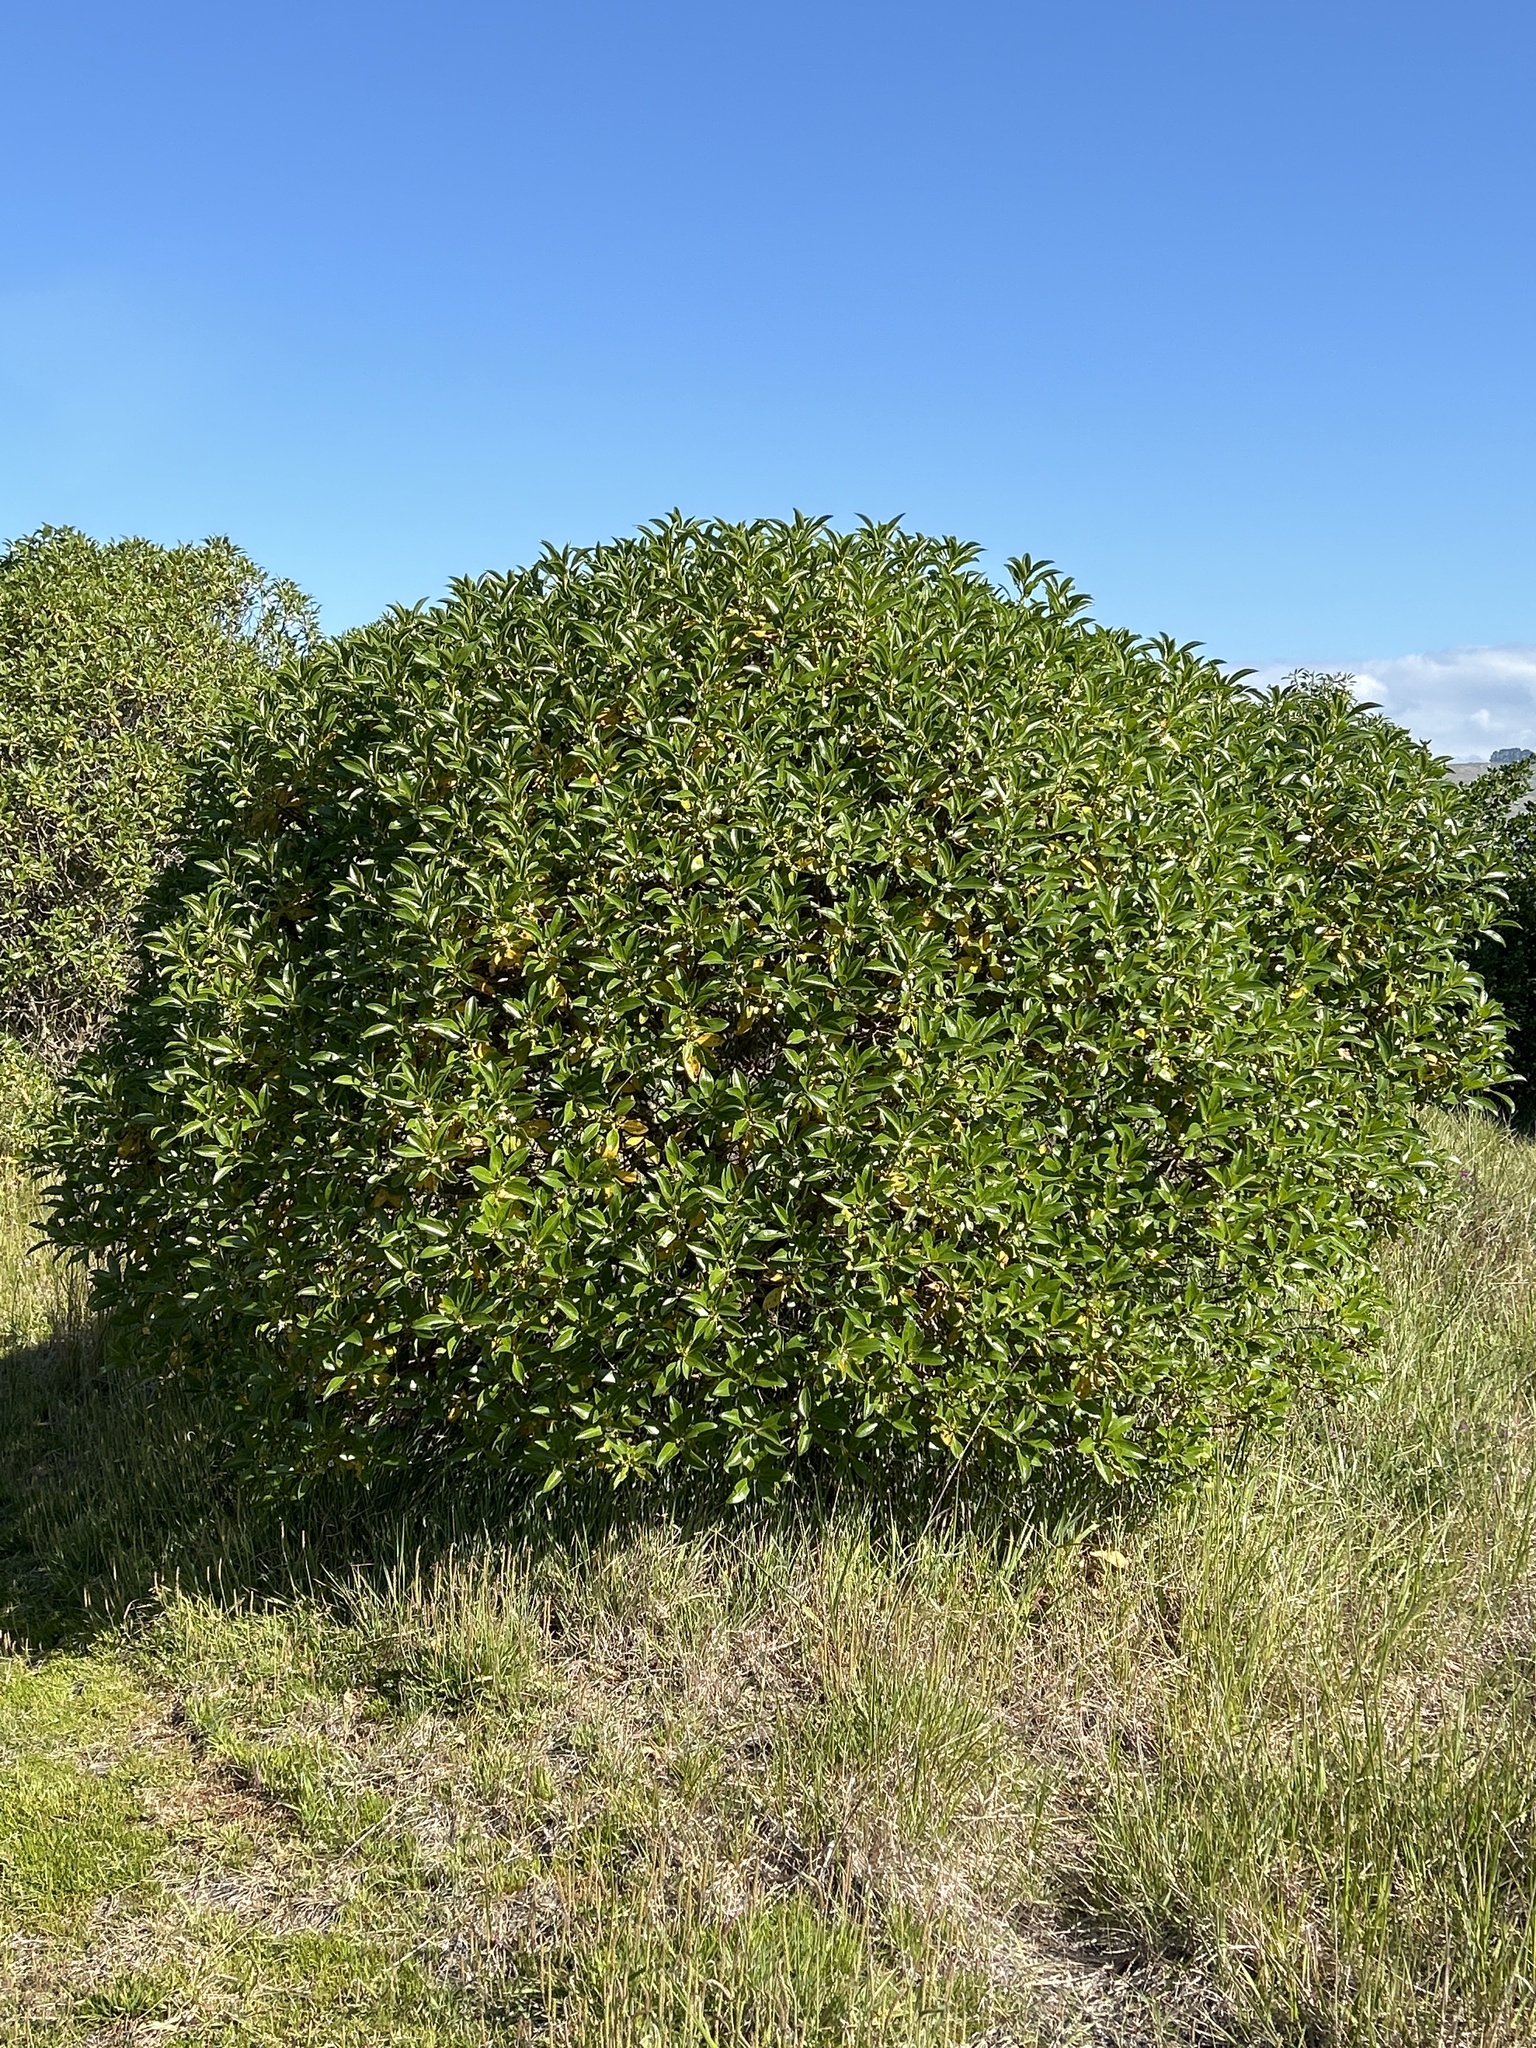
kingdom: Plantae
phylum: Tracheophyta
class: Magnoliopsida
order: Lamiales
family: Scrophulariaceae
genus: Myoporum
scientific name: Myoporum insulare
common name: Common boobialla
